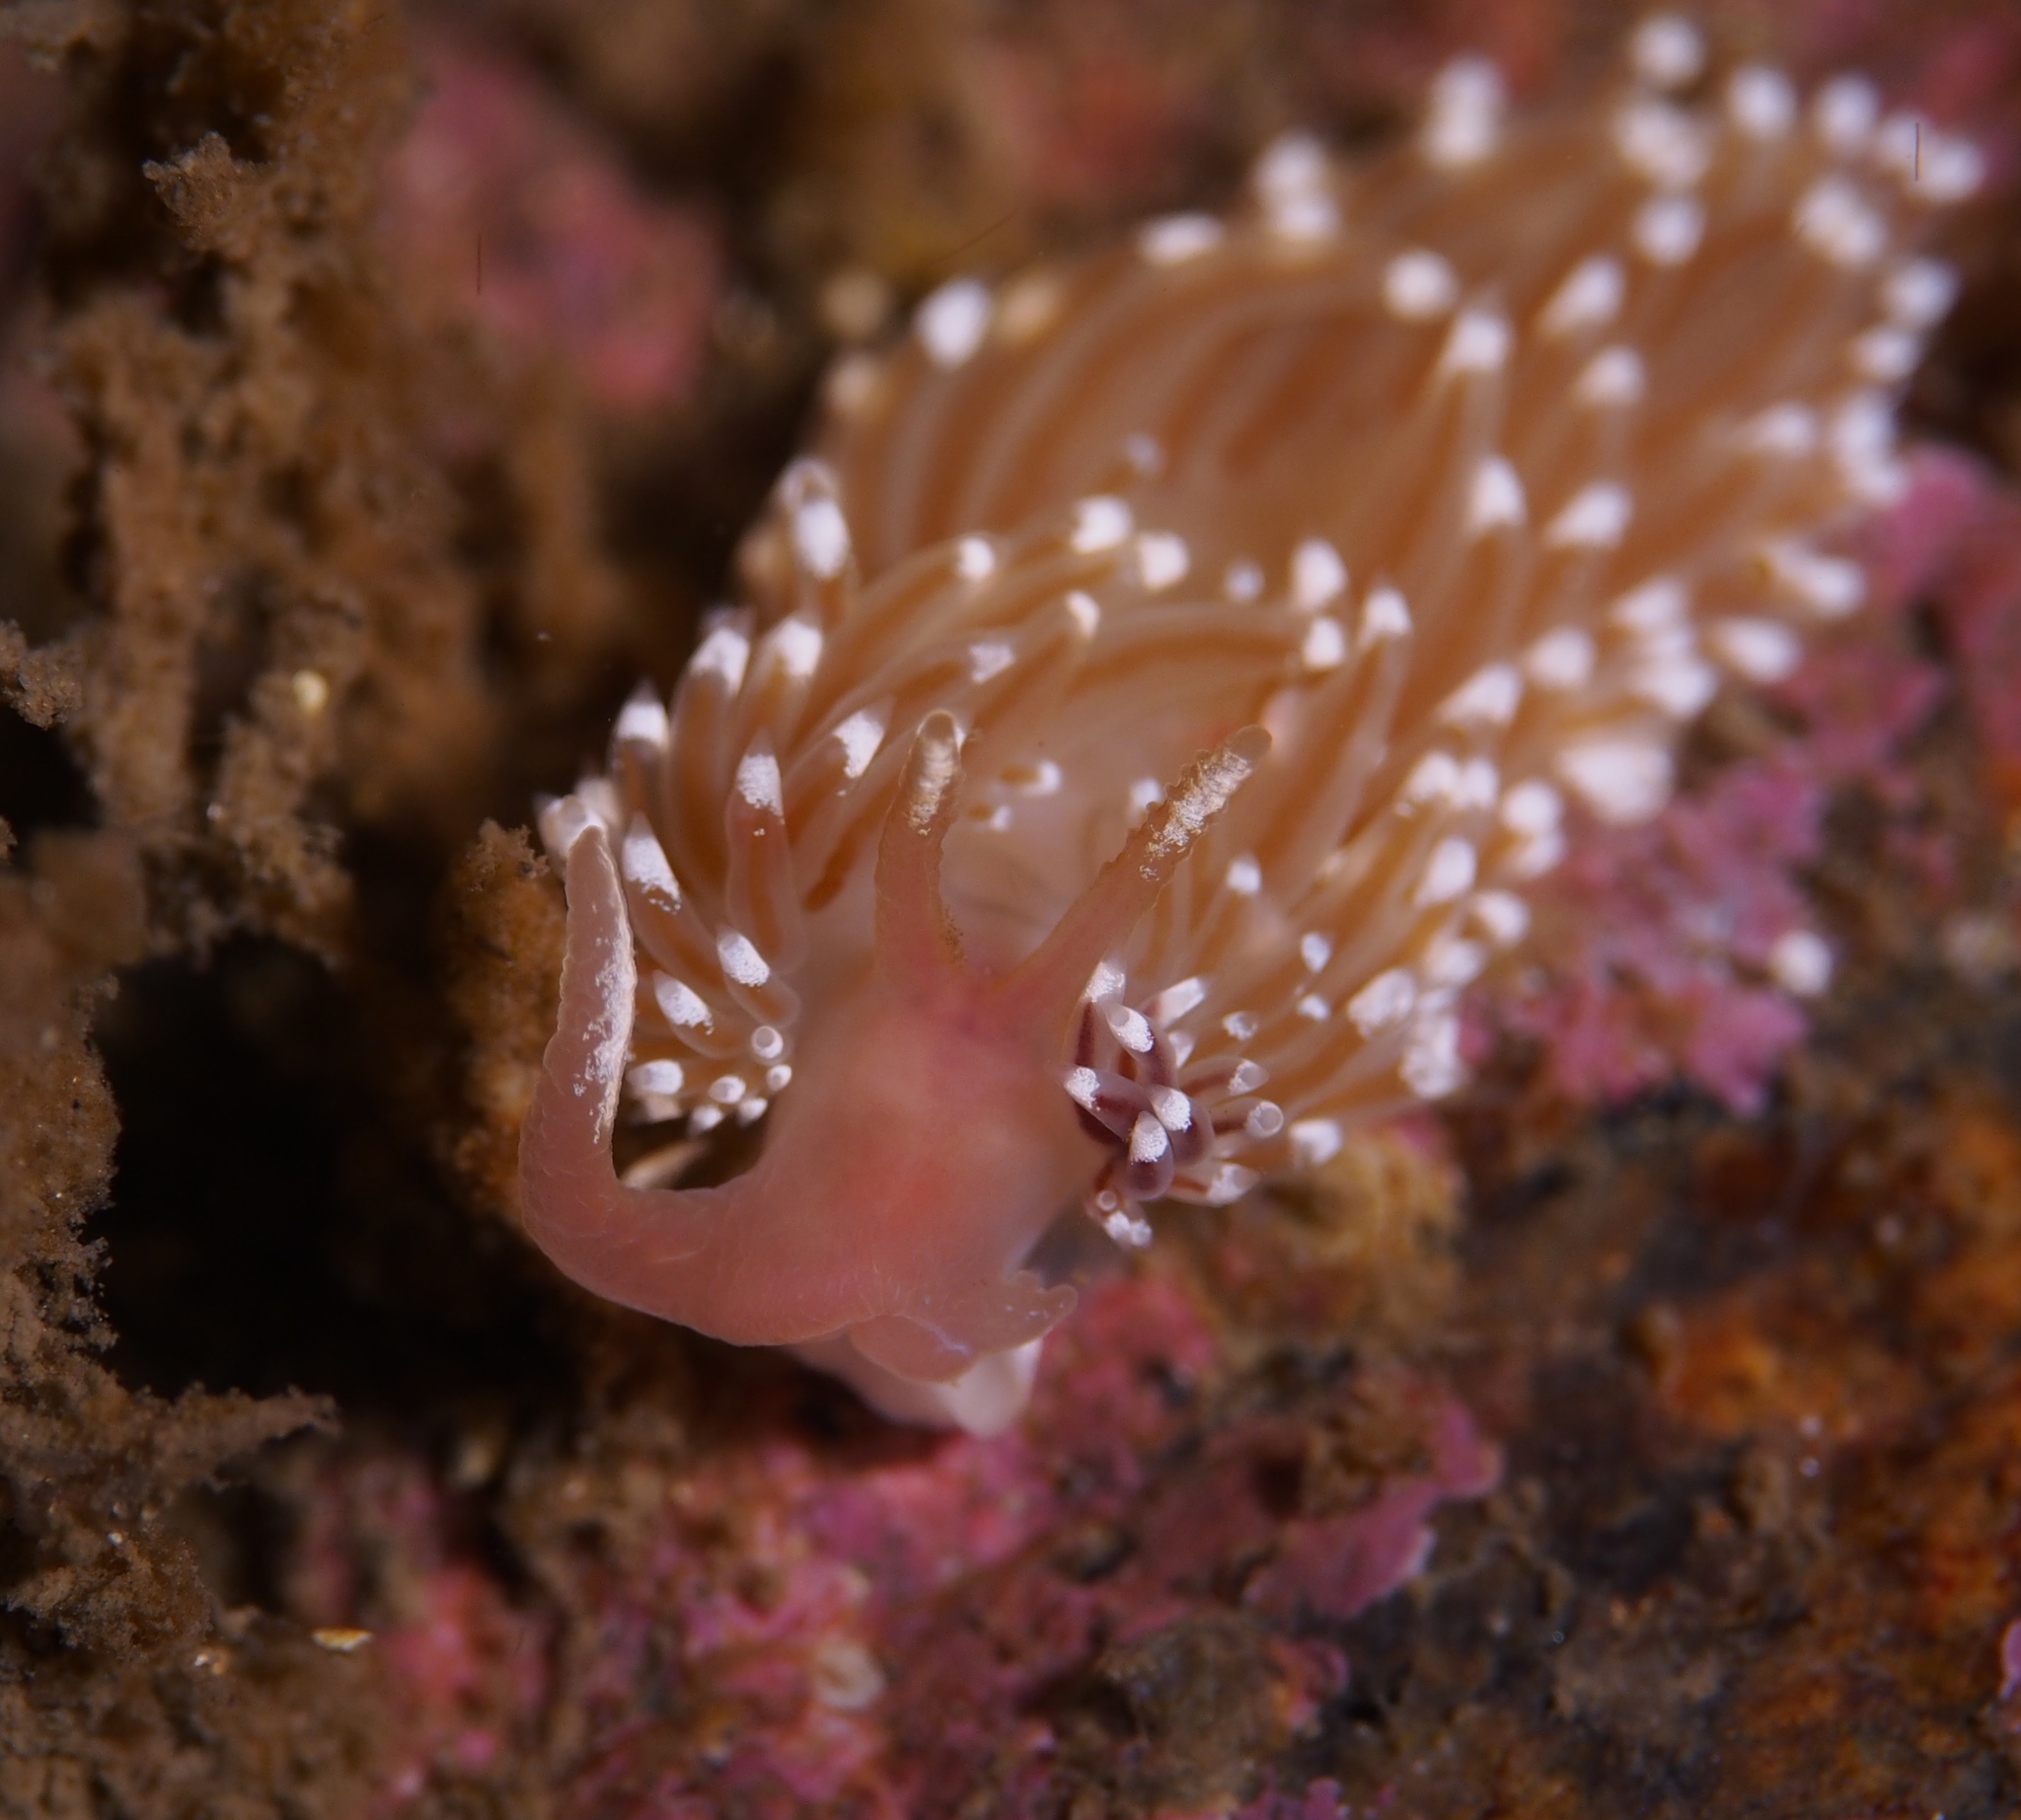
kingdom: Animalia
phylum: Mollusca
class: Gastropoda
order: Nudibranchia
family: Facelinidae
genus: Facelina
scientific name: Facelina bostoniensis
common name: Boston facelina
